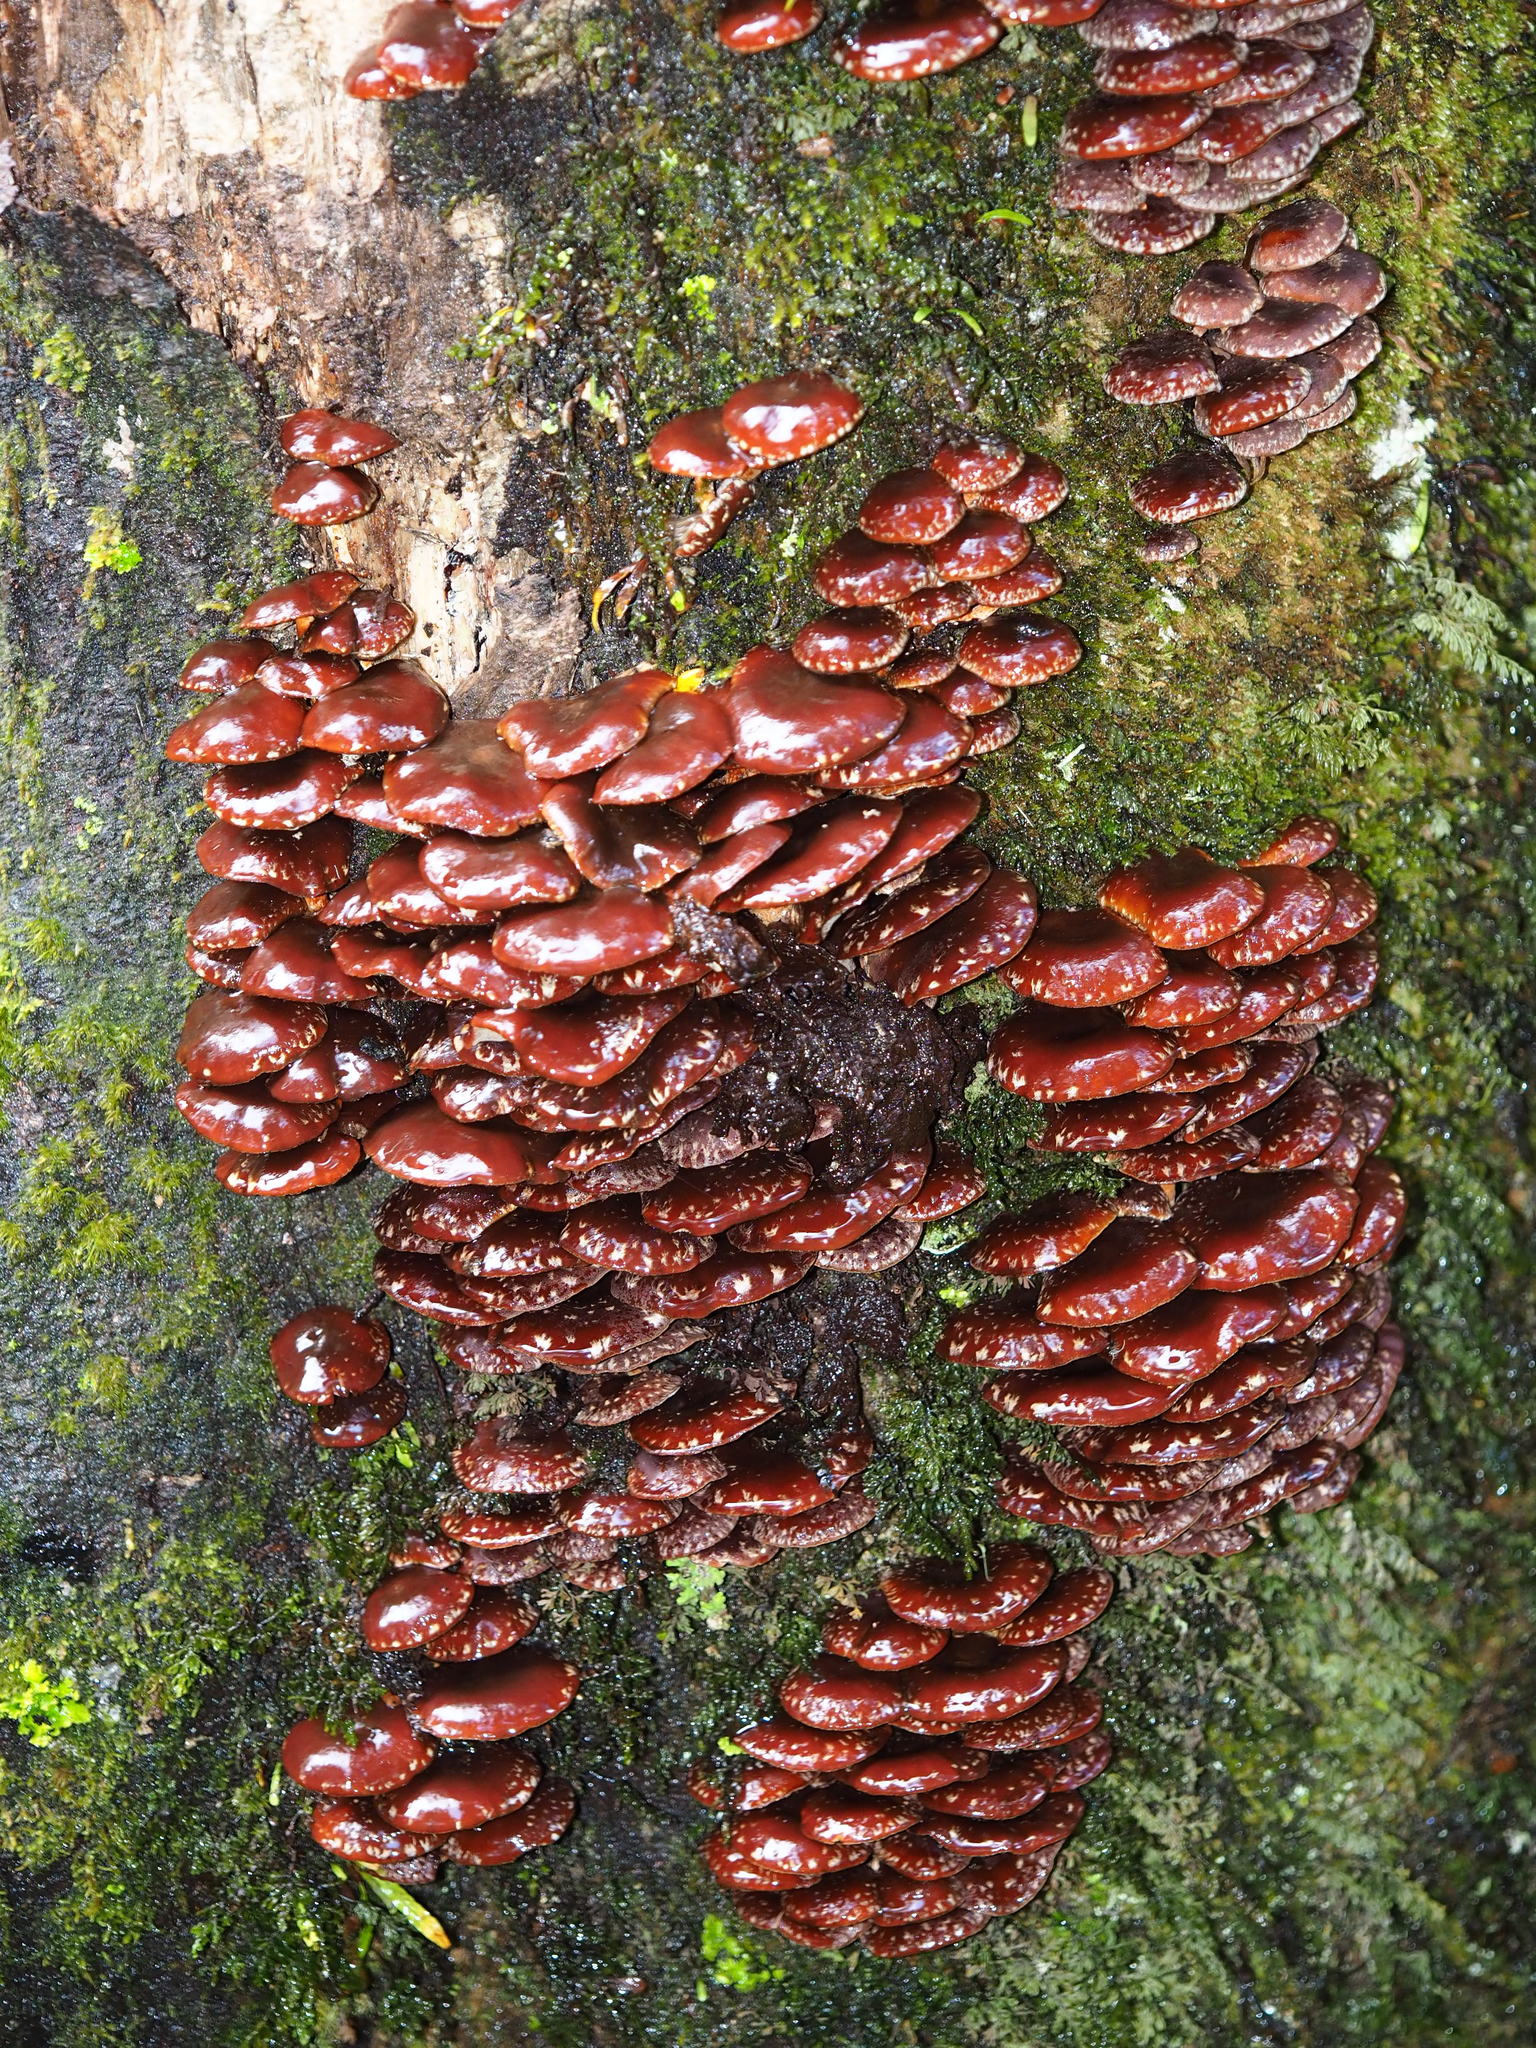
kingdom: Fungi
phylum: Basidiomycota
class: Agaricomycetes
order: Agaricales
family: Strophariaceae
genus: Hypholoma
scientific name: Hypholoma brunneum
